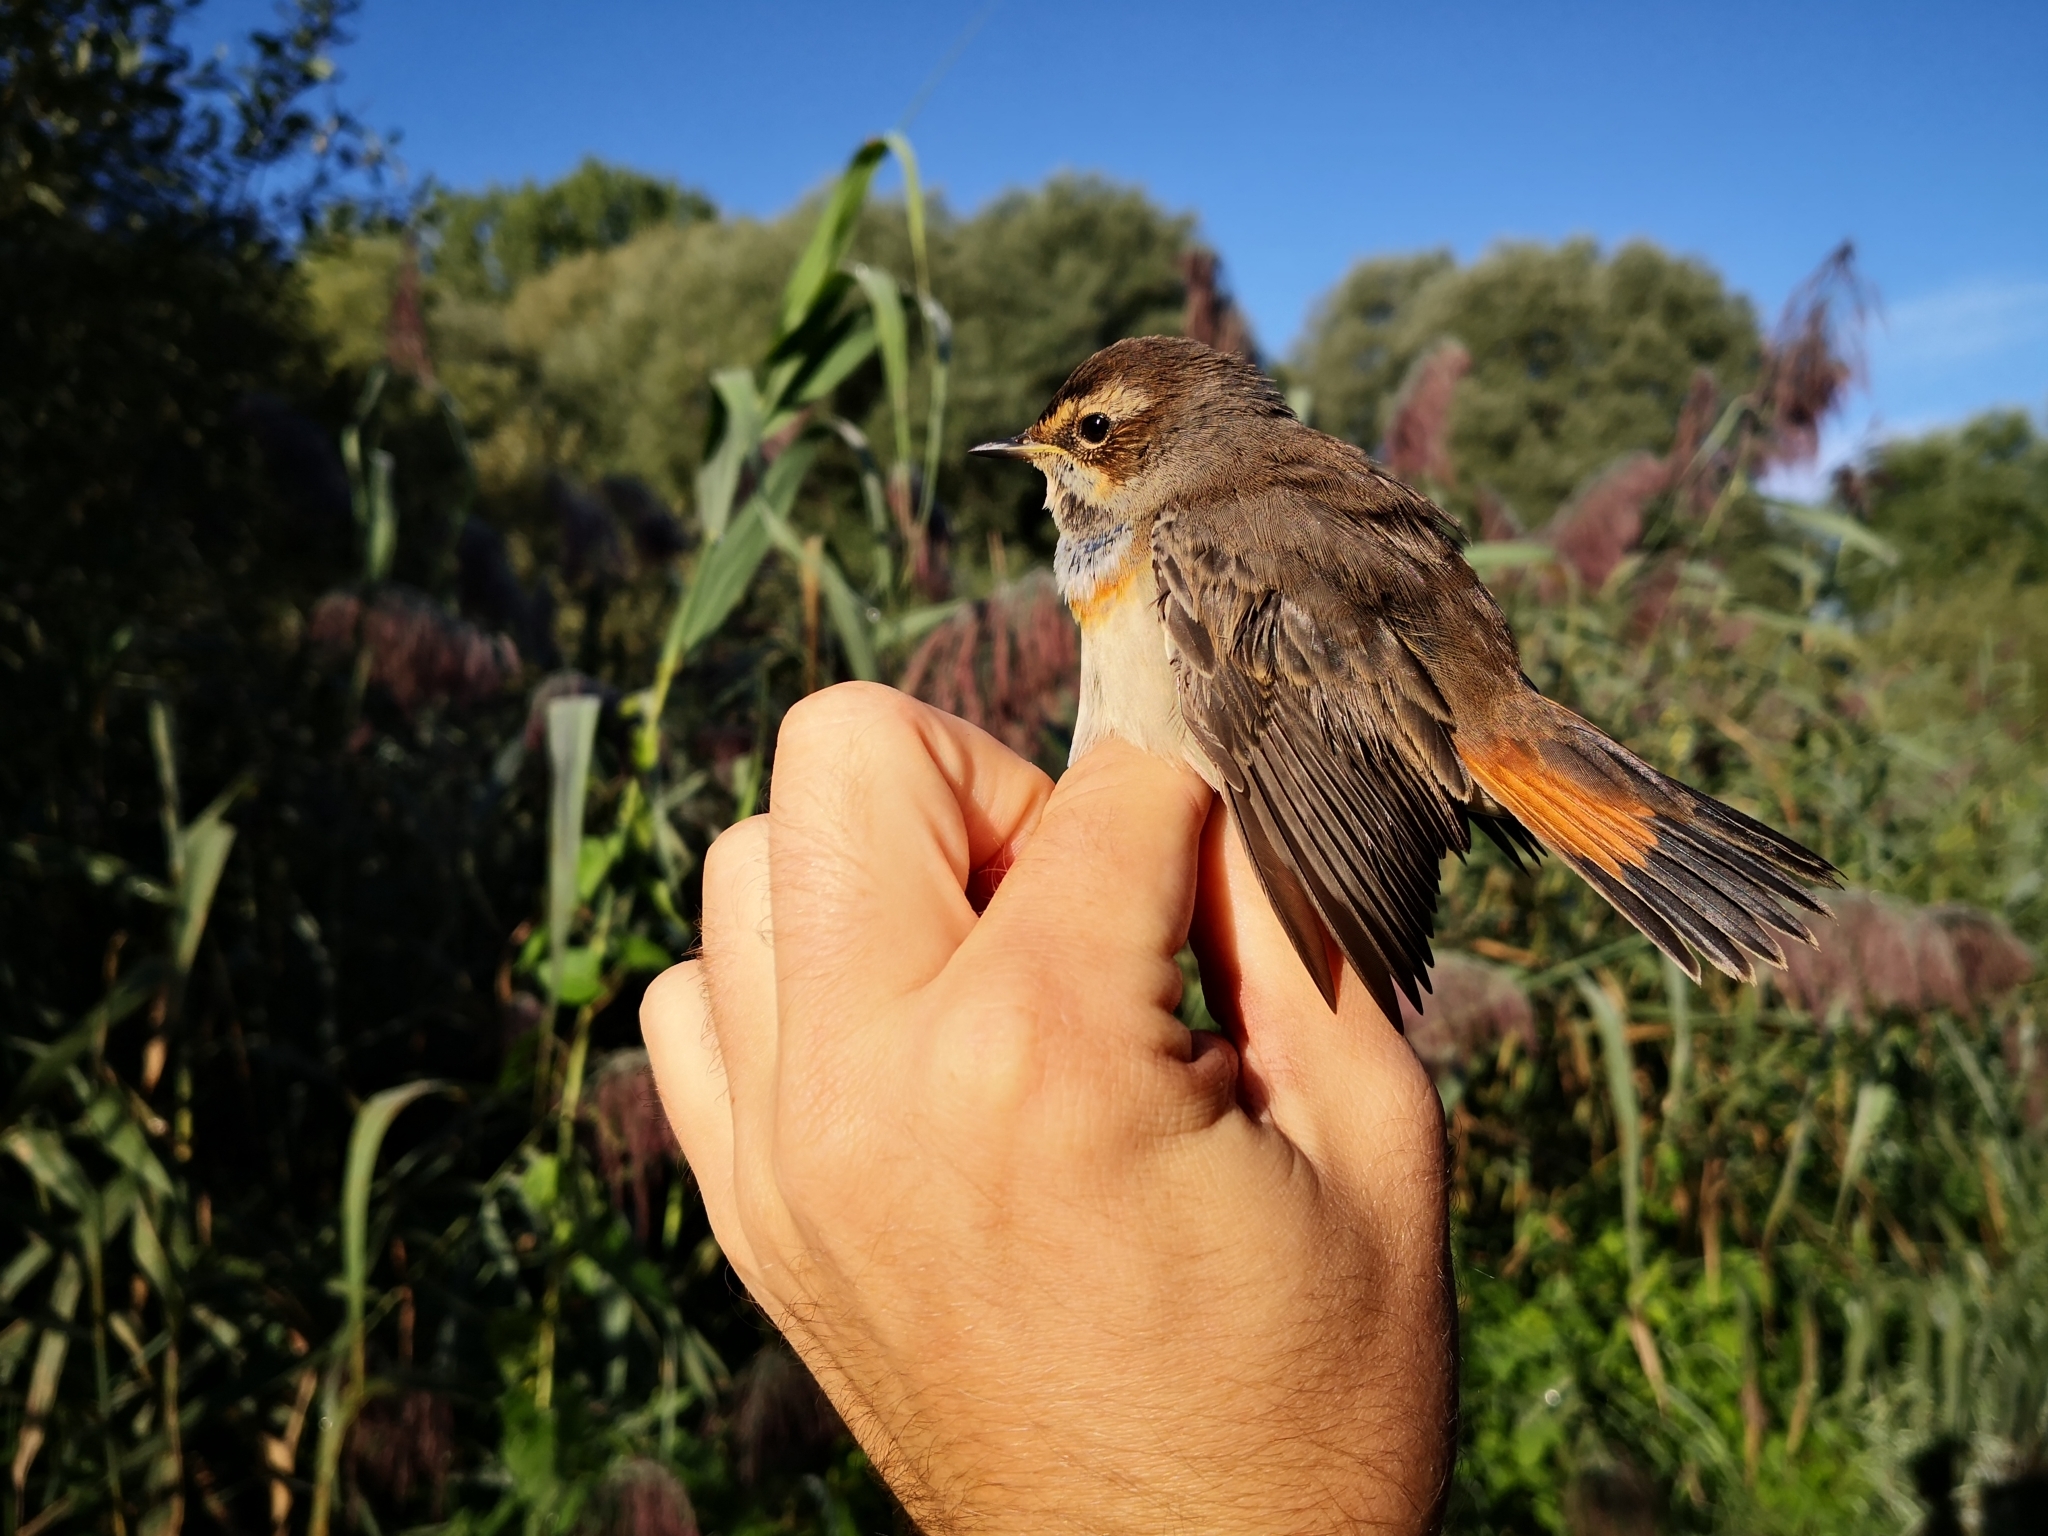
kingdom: Animalia
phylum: Chordata
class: Aves
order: Passeriformes
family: Muscicapidae
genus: Luscinia
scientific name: Luscinia svecica
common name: Bluethroat
